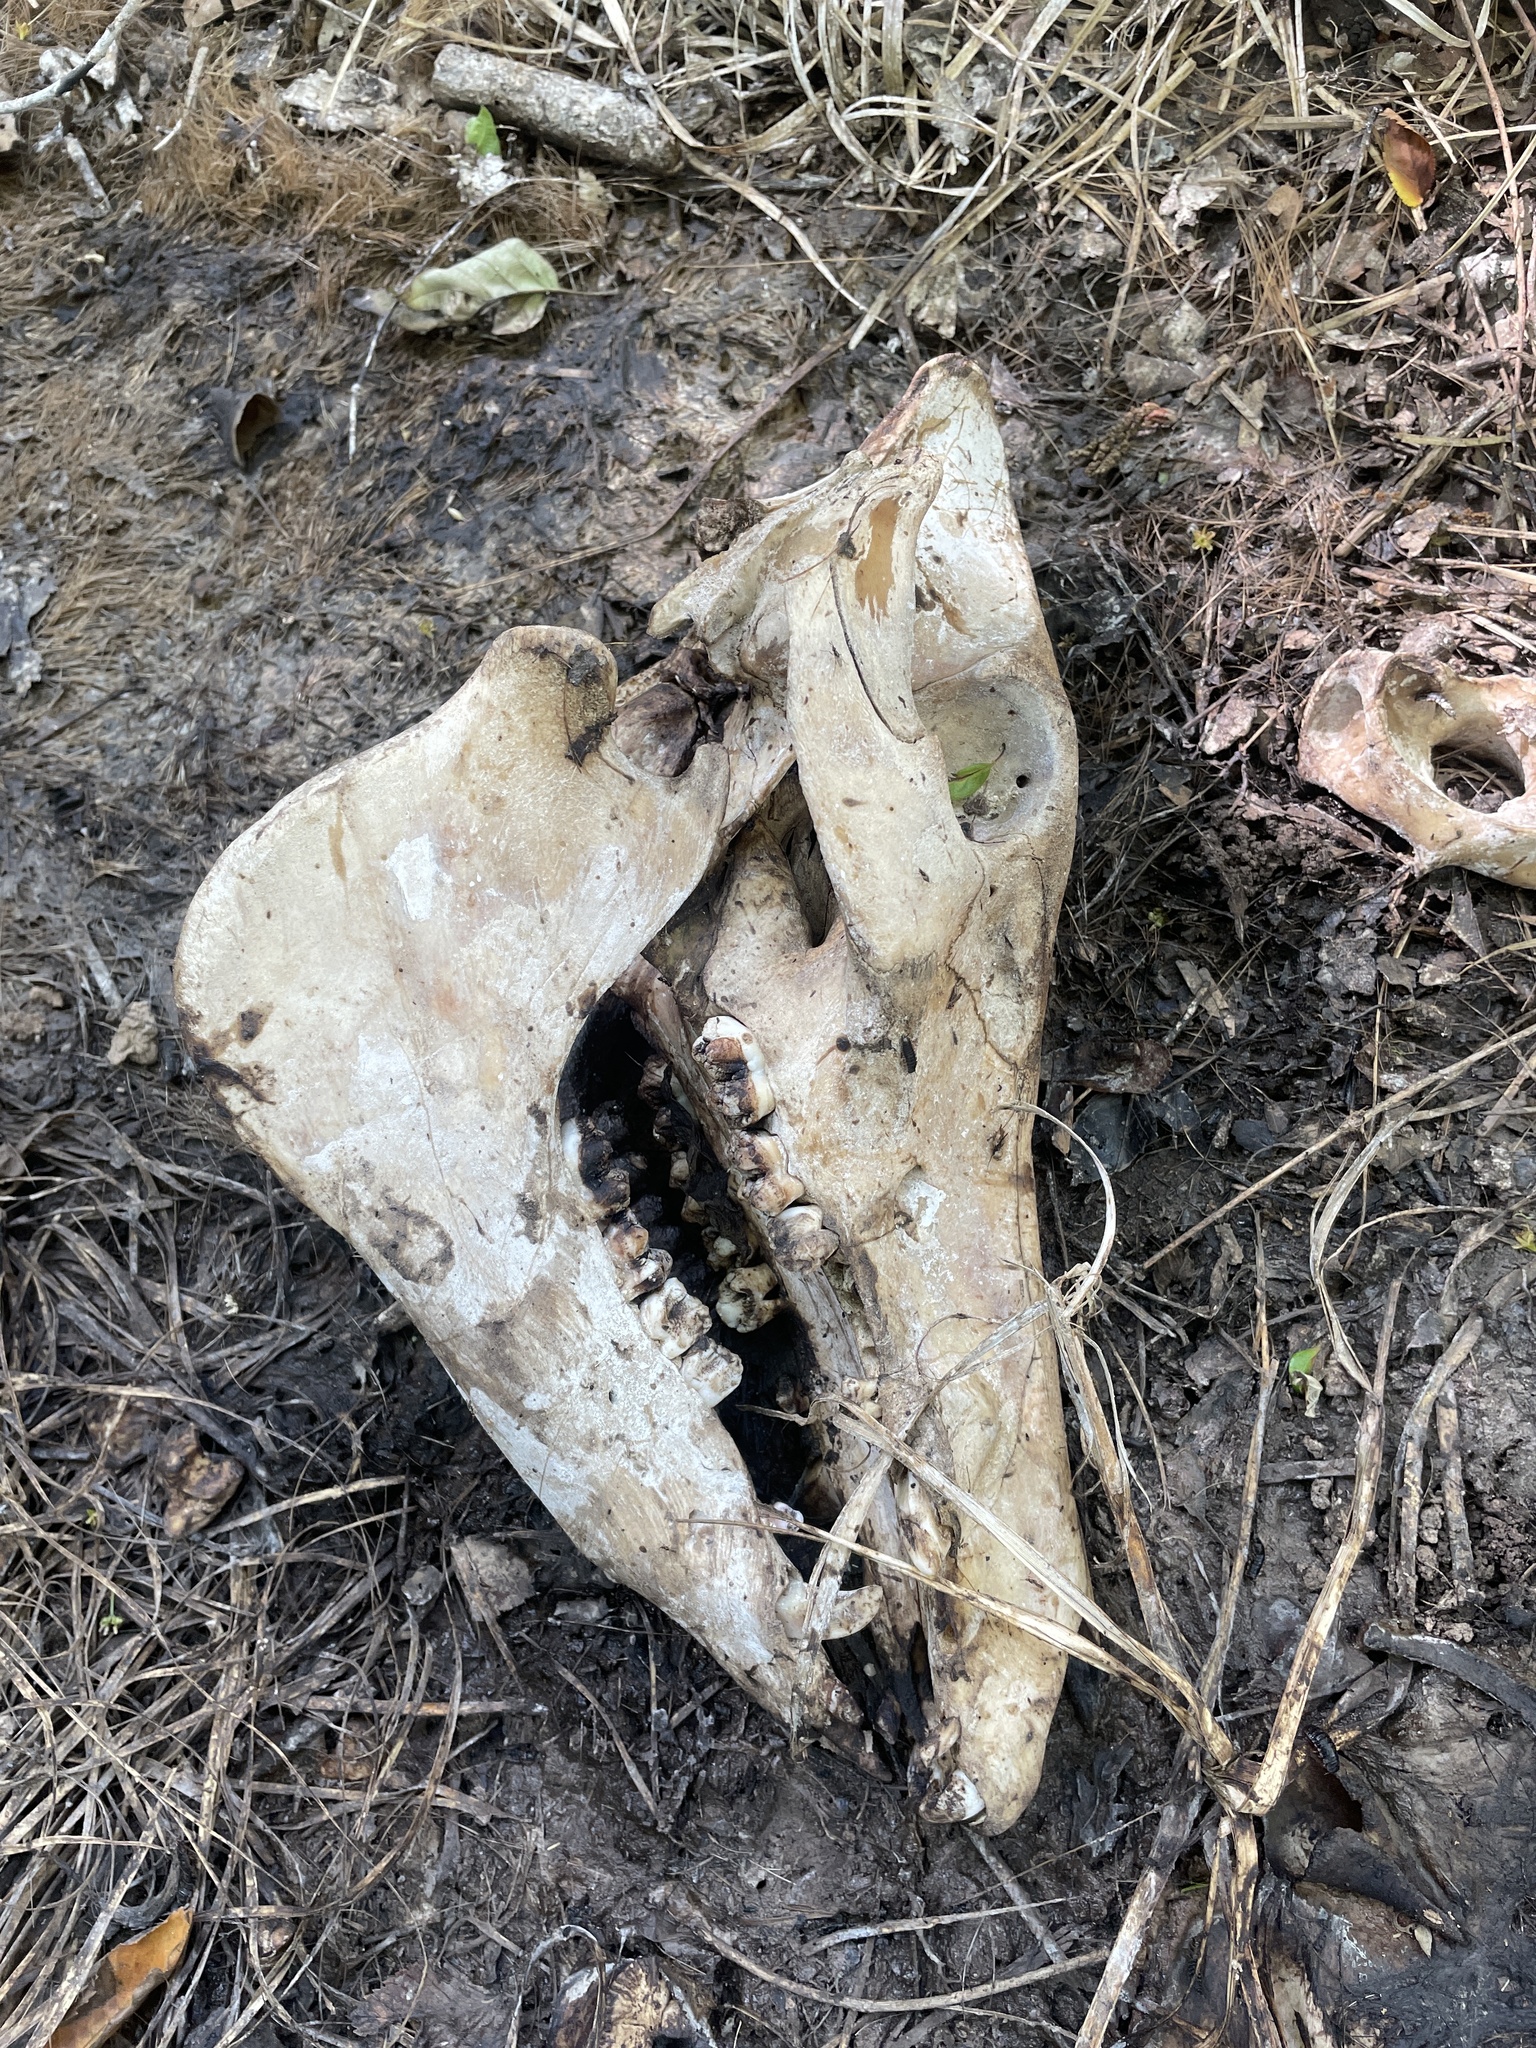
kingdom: Animalia
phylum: Chordata
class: Mammalia
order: Artiodactyla
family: Suidae
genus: Sus
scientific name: Sus scrofa
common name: Wild boar
